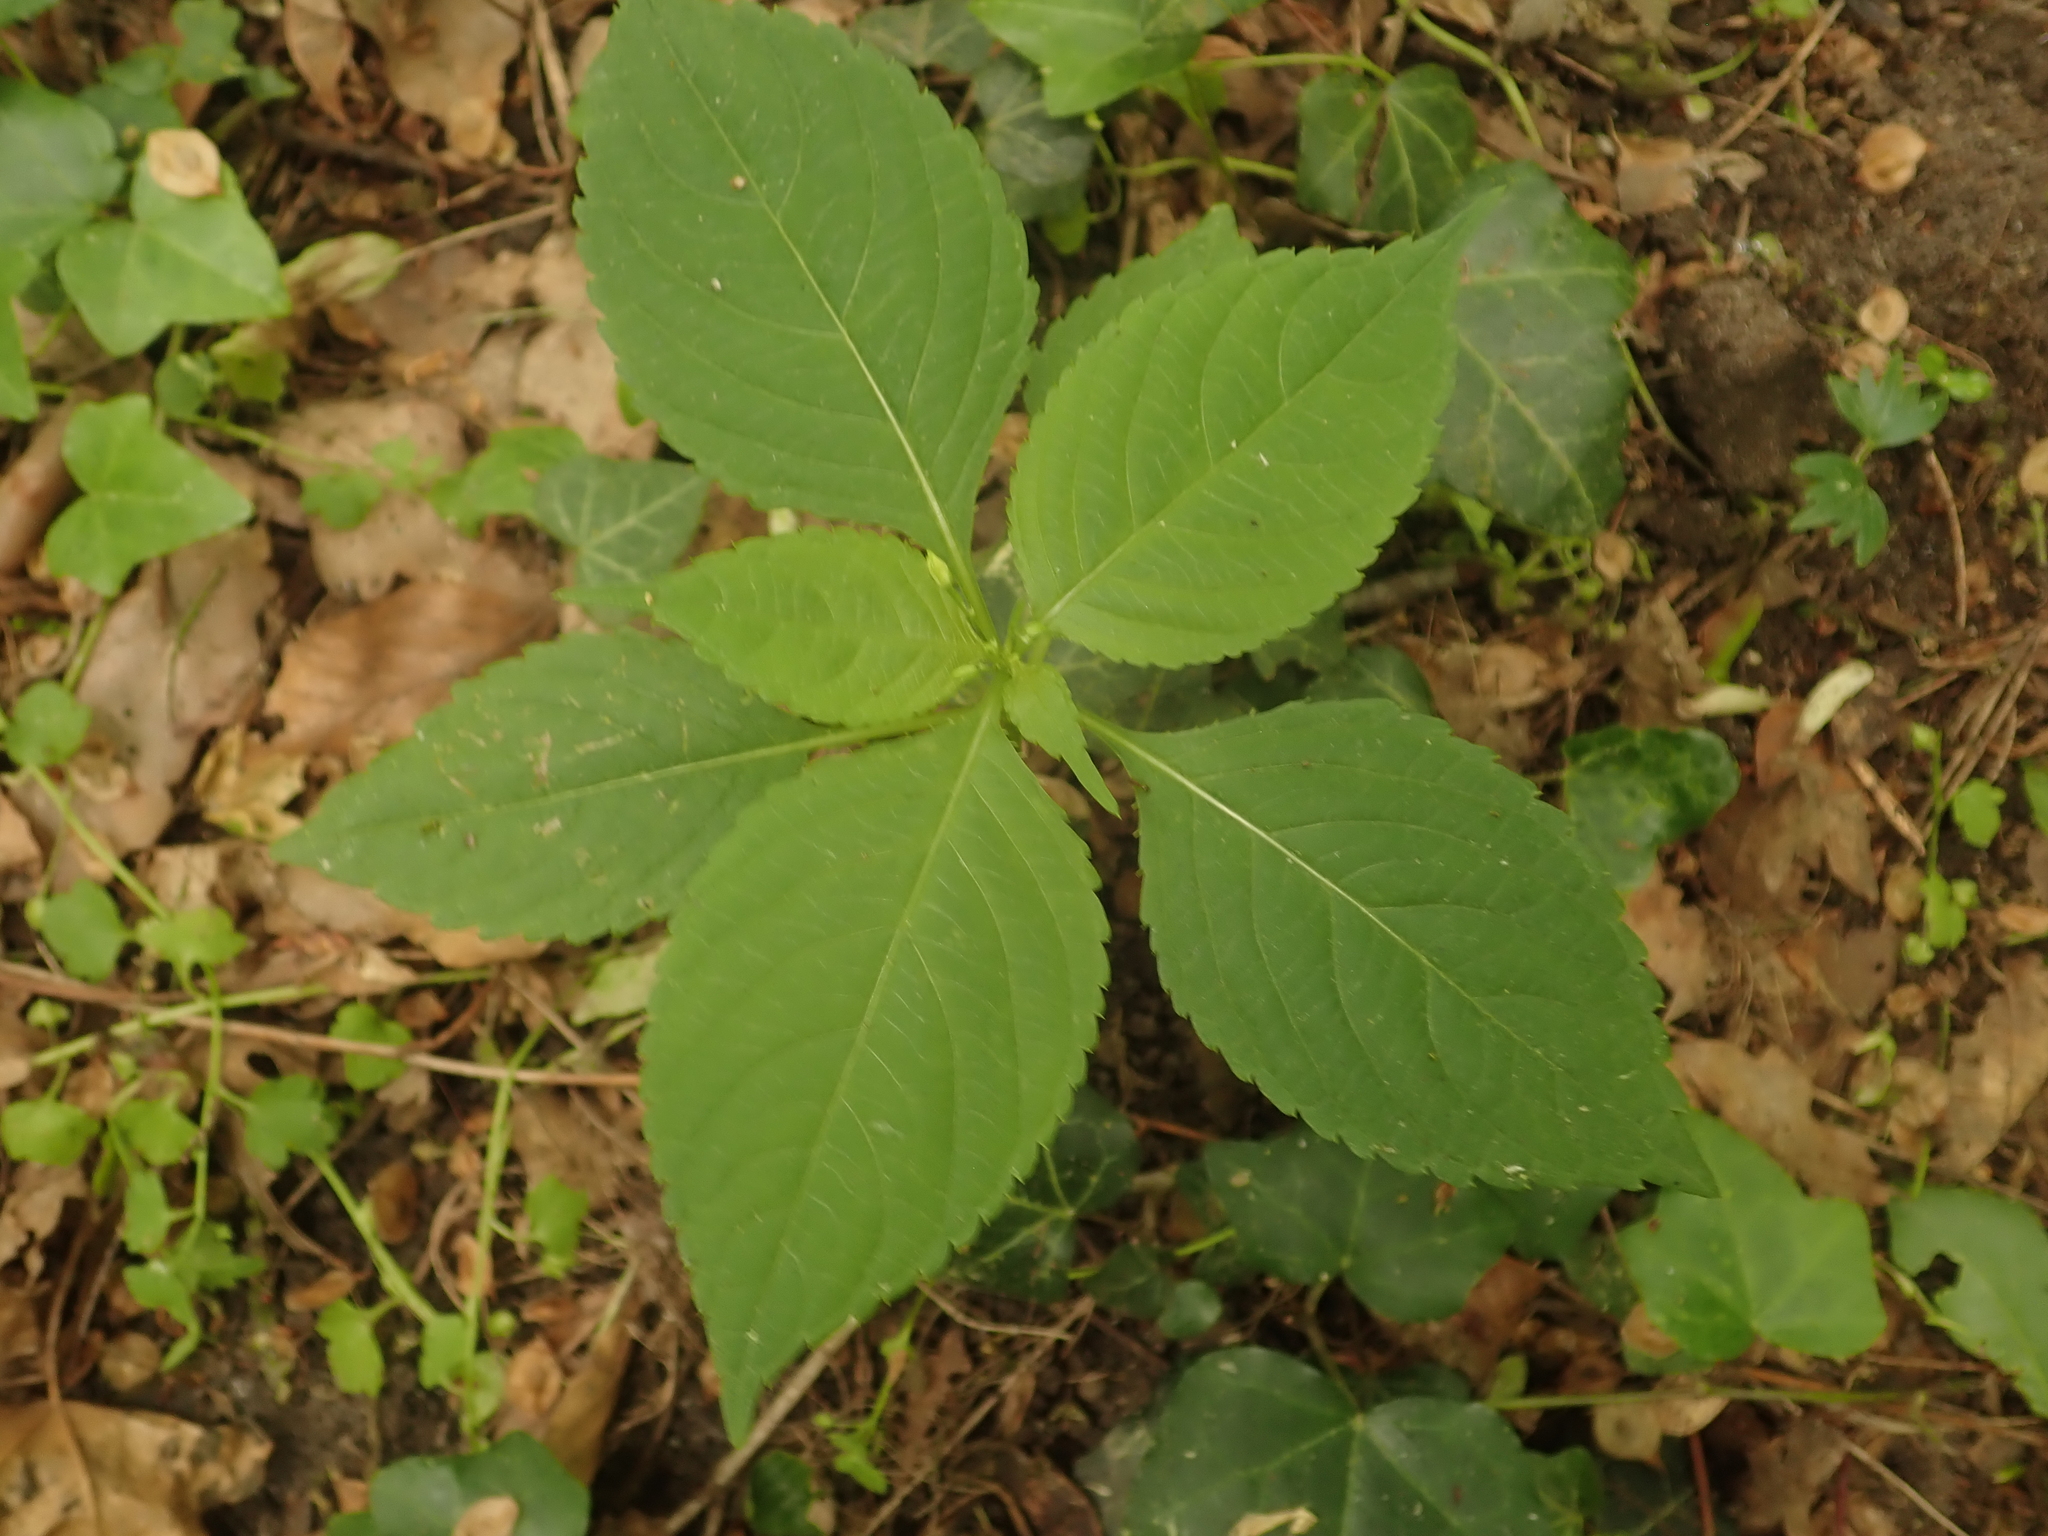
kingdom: Plantae
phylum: Tracheophyta
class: Magnoliopsida
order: Ericales
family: Balsaminaceae
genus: Impatiens
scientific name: Impatiens parviflora
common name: Small balsam
